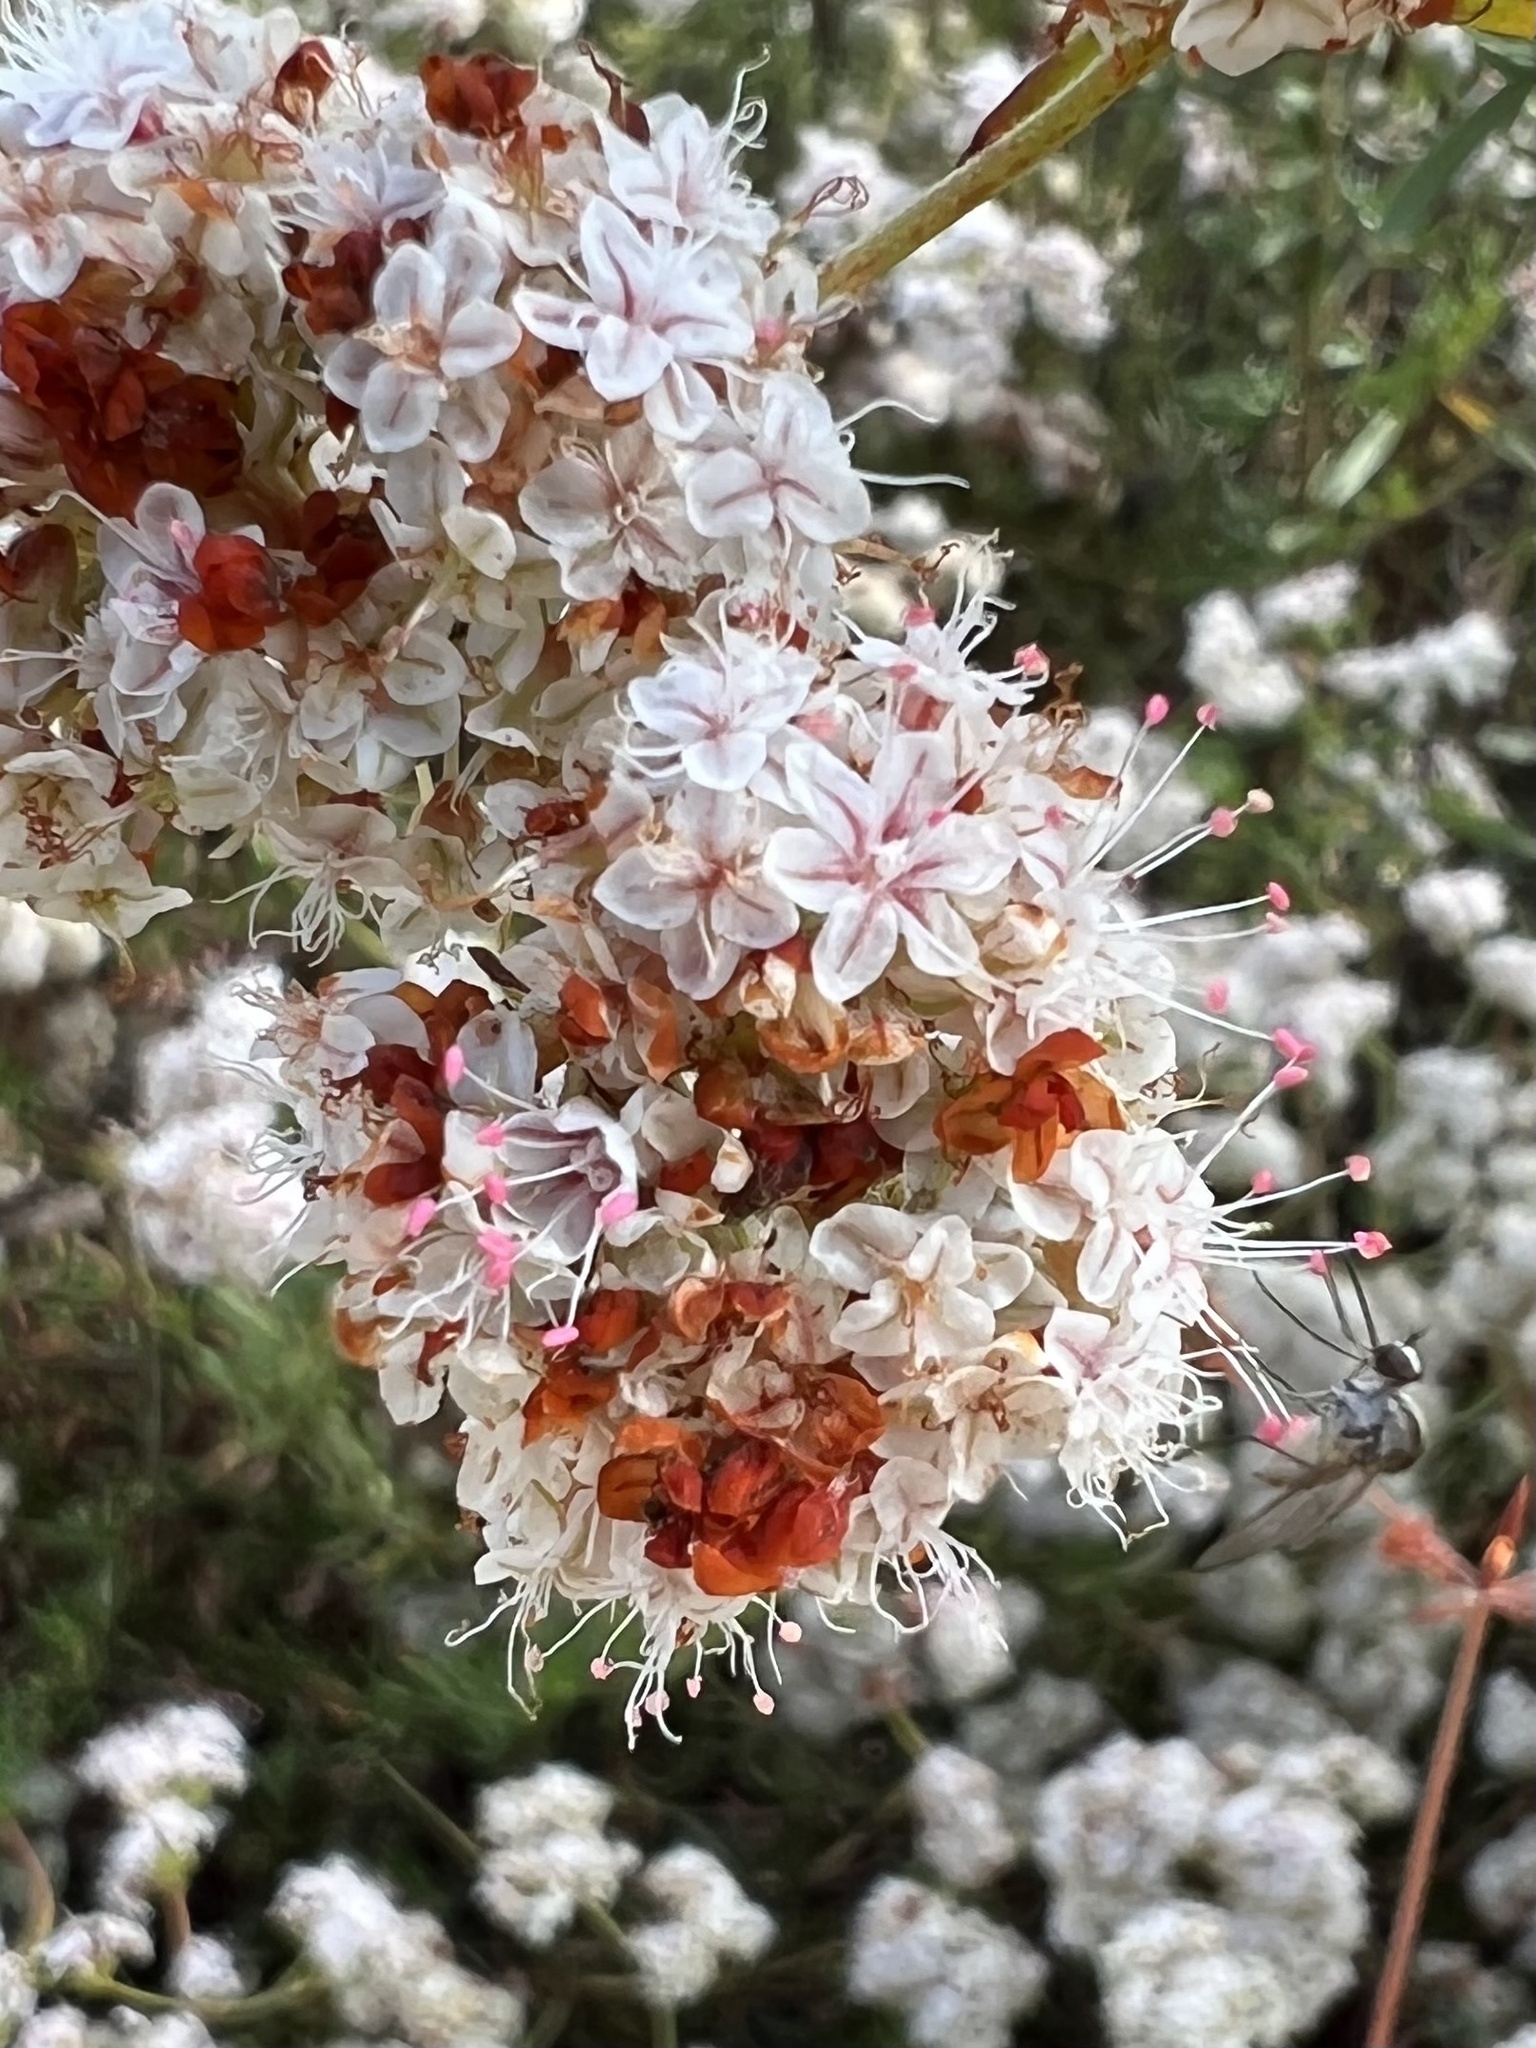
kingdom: Plantae
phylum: Tracheophyta
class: Magnoliopsida
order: Caryophyllales
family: Polygonaceae
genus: Eriogonum
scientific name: Eriogonum fasciculatum
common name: California wild buckwheat
